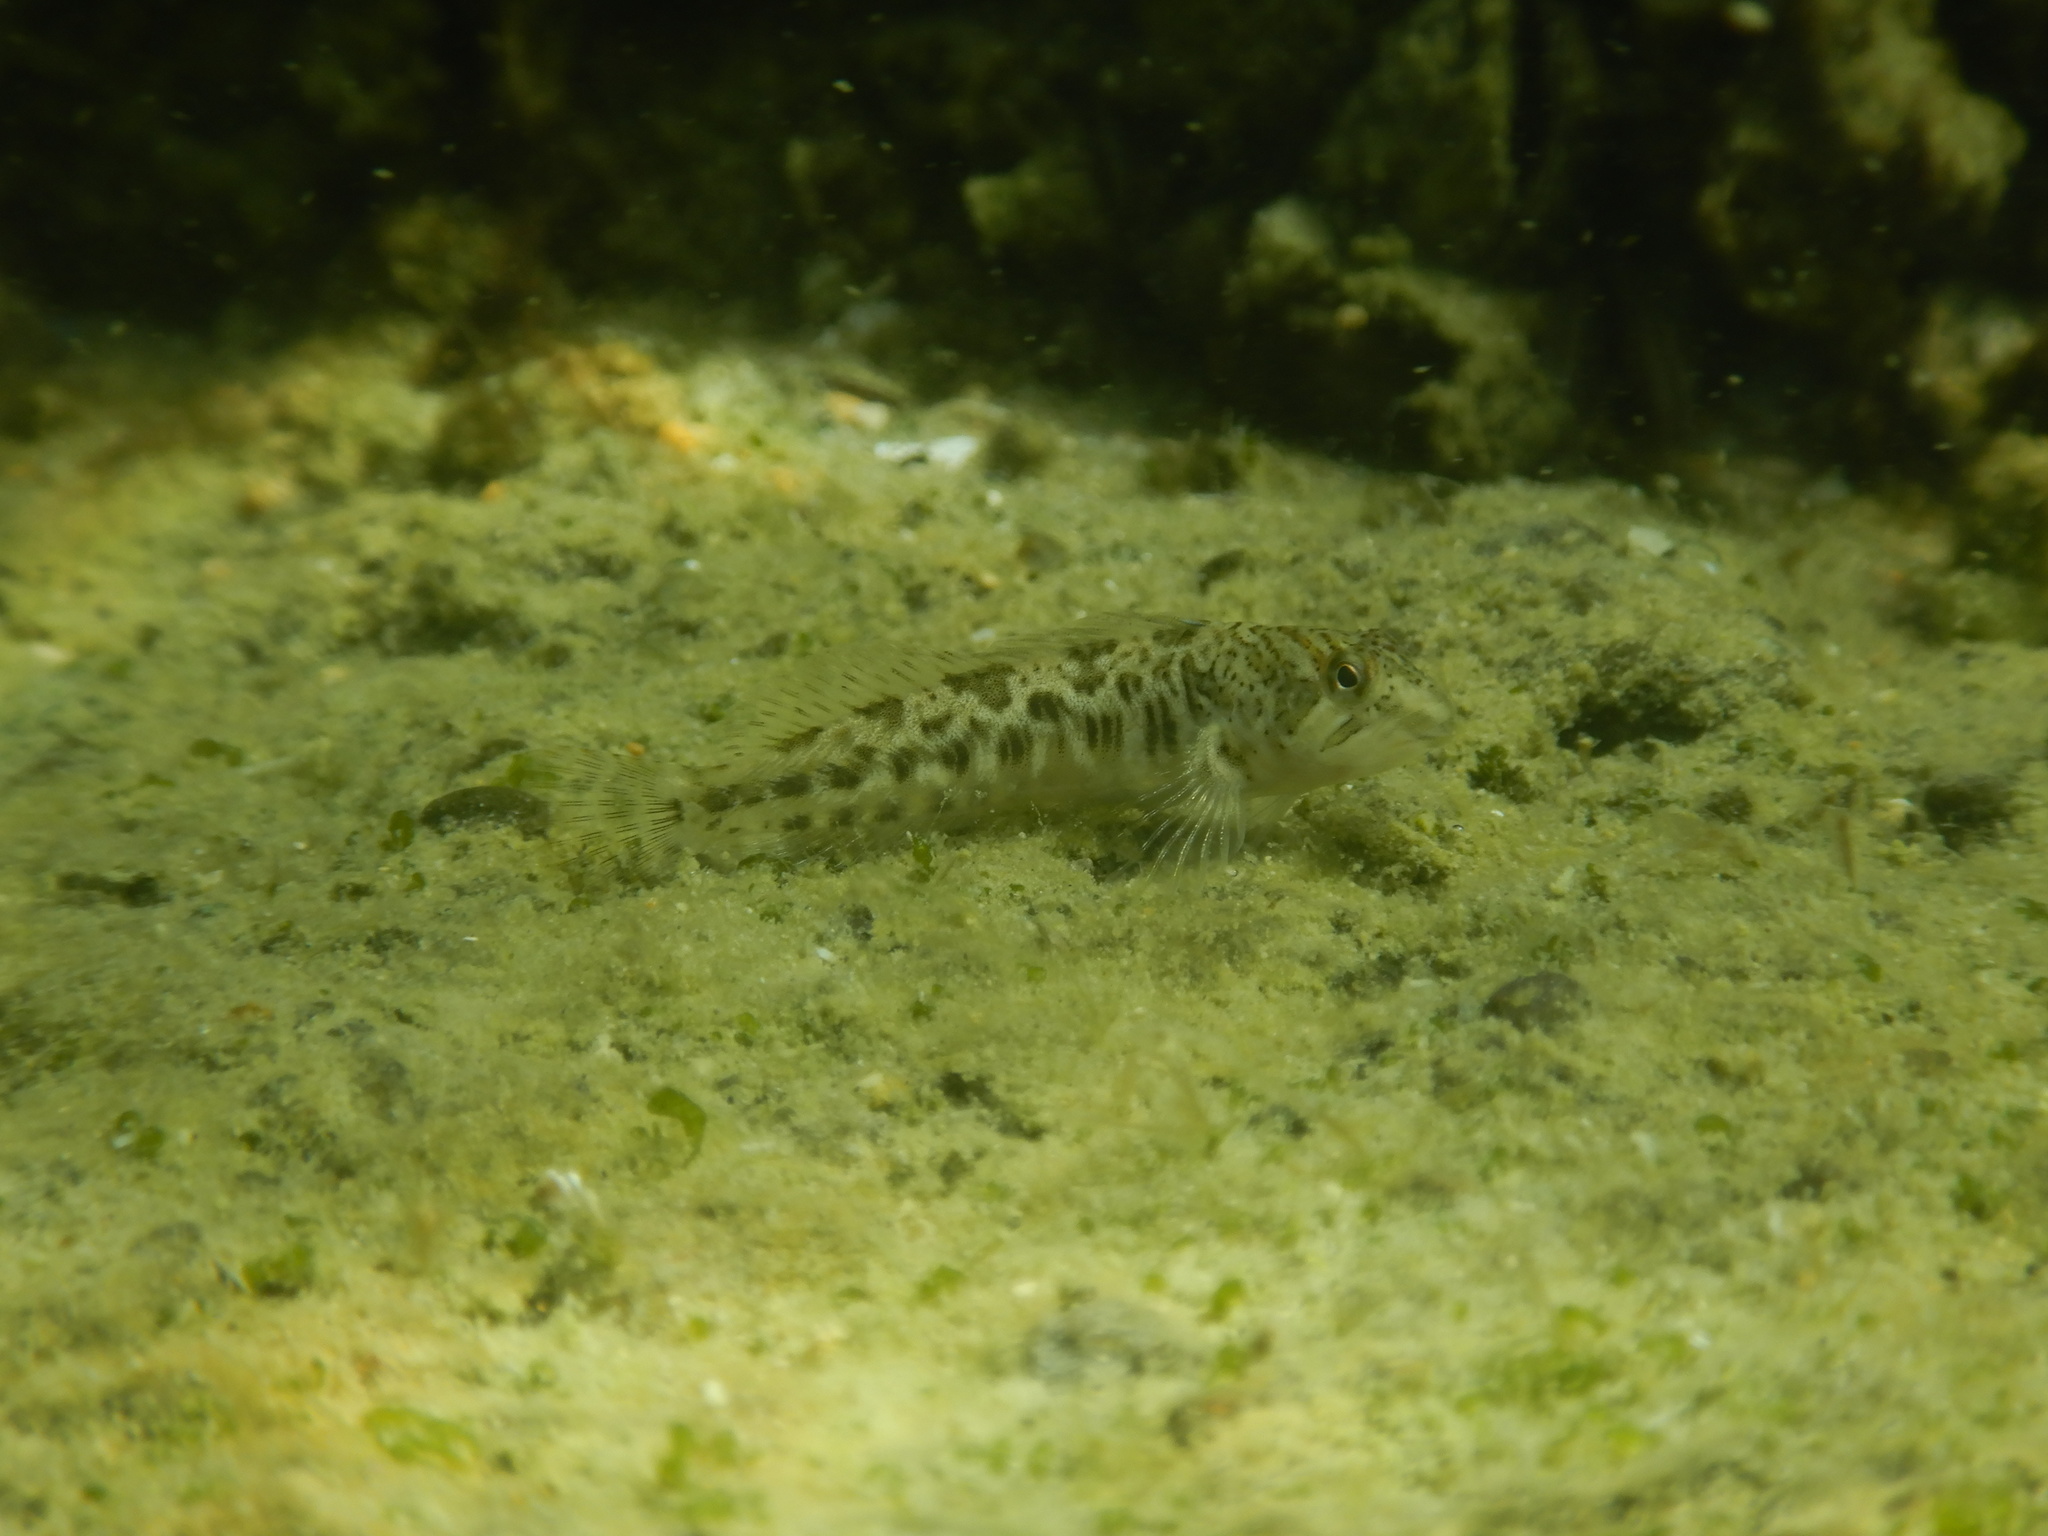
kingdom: Animalia
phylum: Chordata
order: Perciformes
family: Blenniidae
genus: Salaria
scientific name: Salaria fluviatilis
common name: Freshwater blenny
